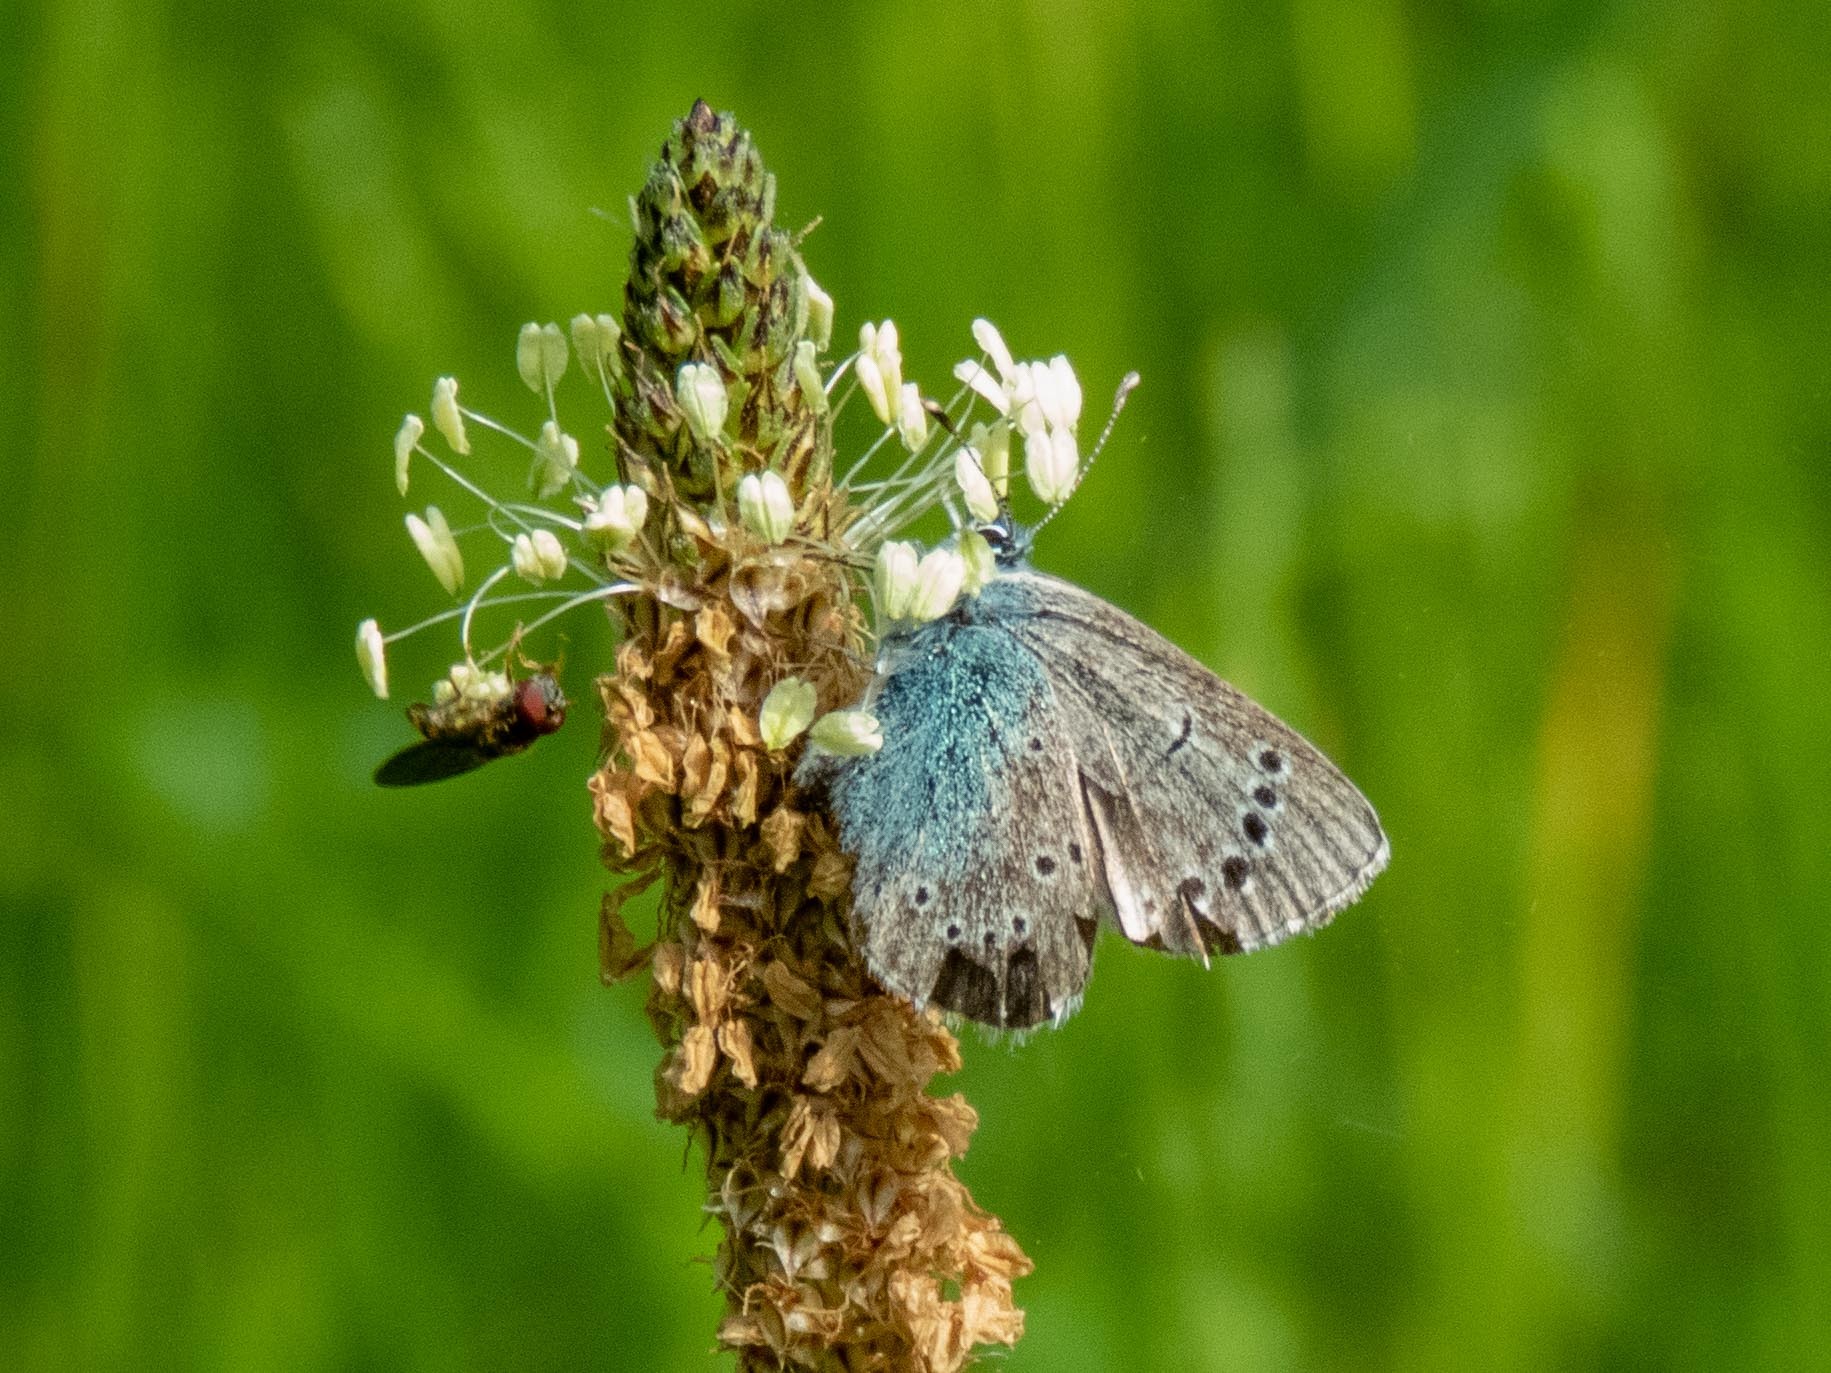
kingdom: Animalia
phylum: Arthropoda
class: Insecta
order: Lepidoptera
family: Lycaenidae
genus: Glaucopsyche
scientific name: Glaucopsyche melanops
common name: Black-eyed blue
